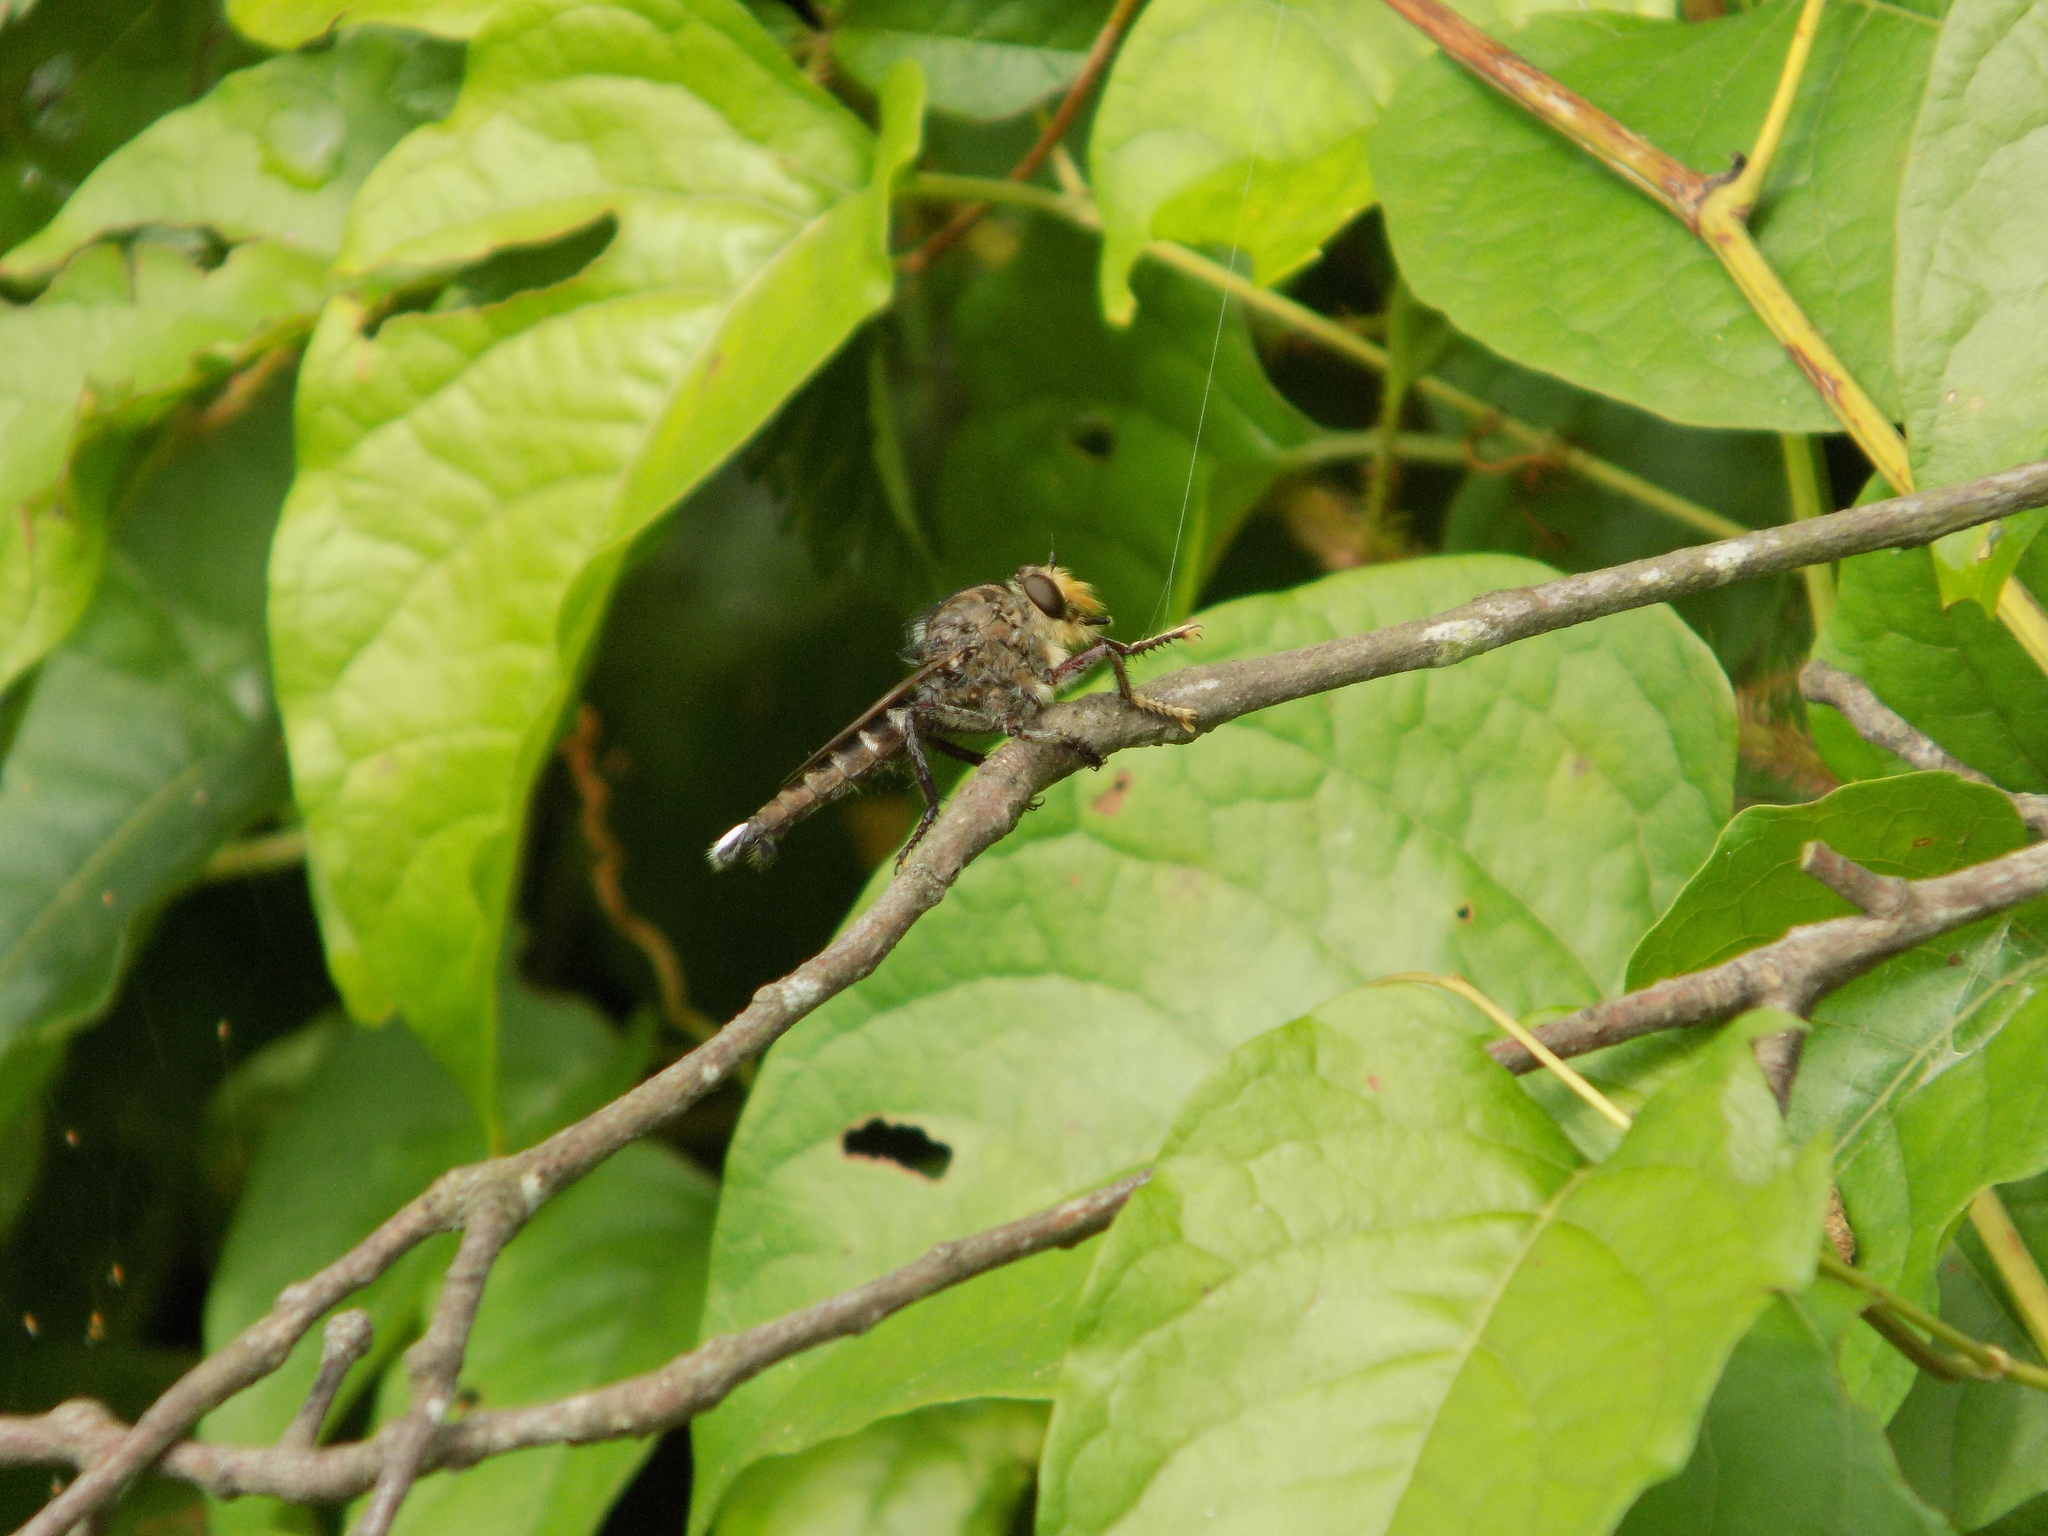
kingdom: Animalia
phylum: Arthropoda
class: Insecta
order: Diptera
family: Asilidae
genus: Promachus
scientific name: Promachus bastardii
